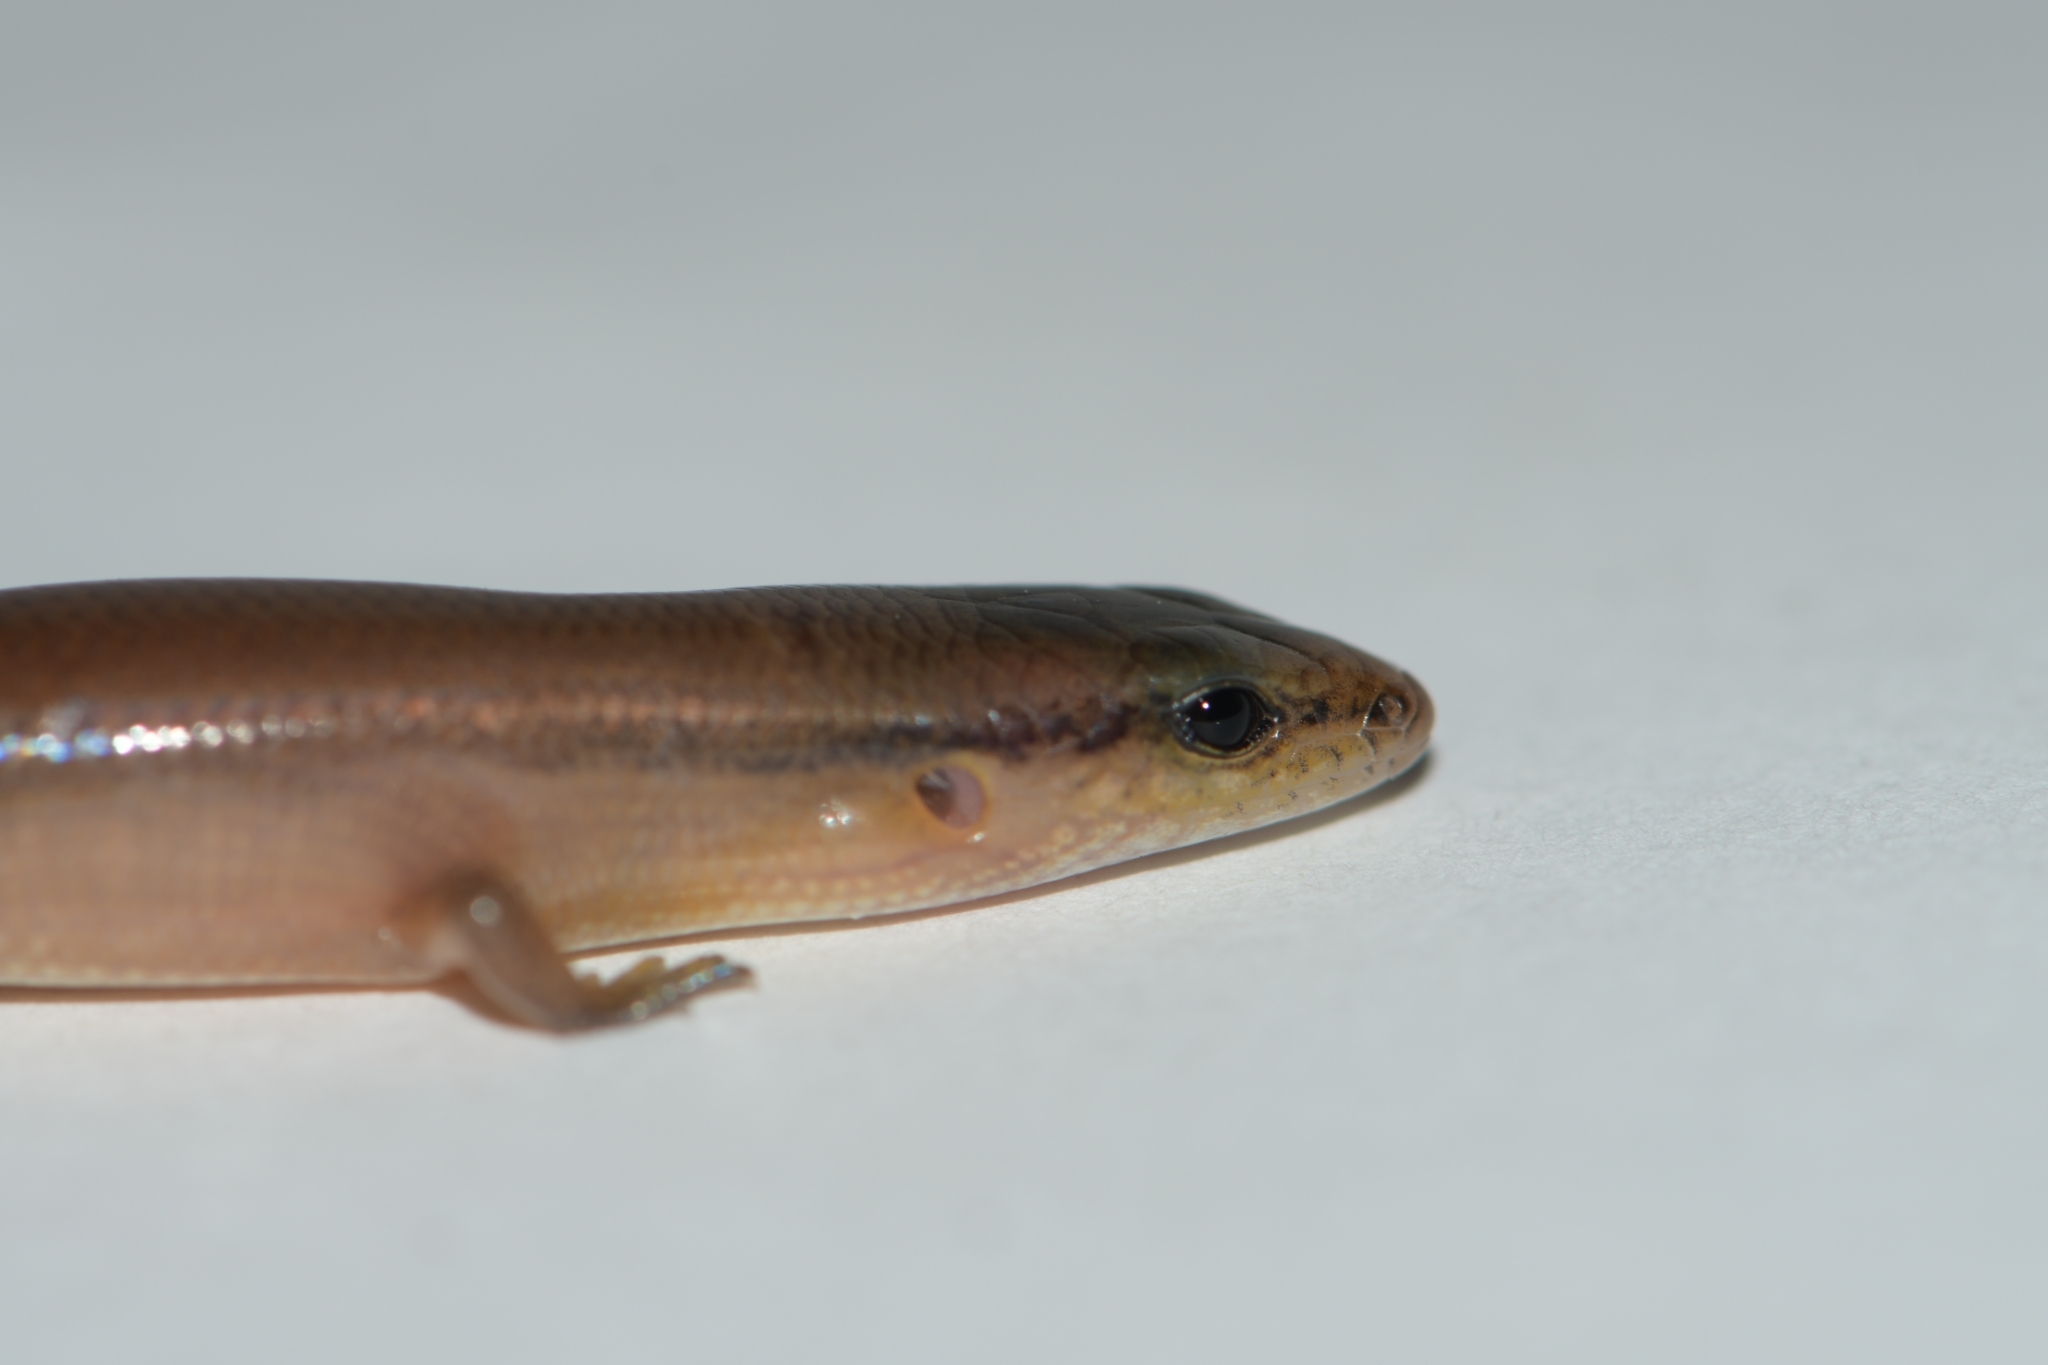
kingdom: Animalia
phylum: Chordata
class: Squamata
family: Scincidae
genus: Scincella
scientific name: Scincella assata
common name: Ground skink
